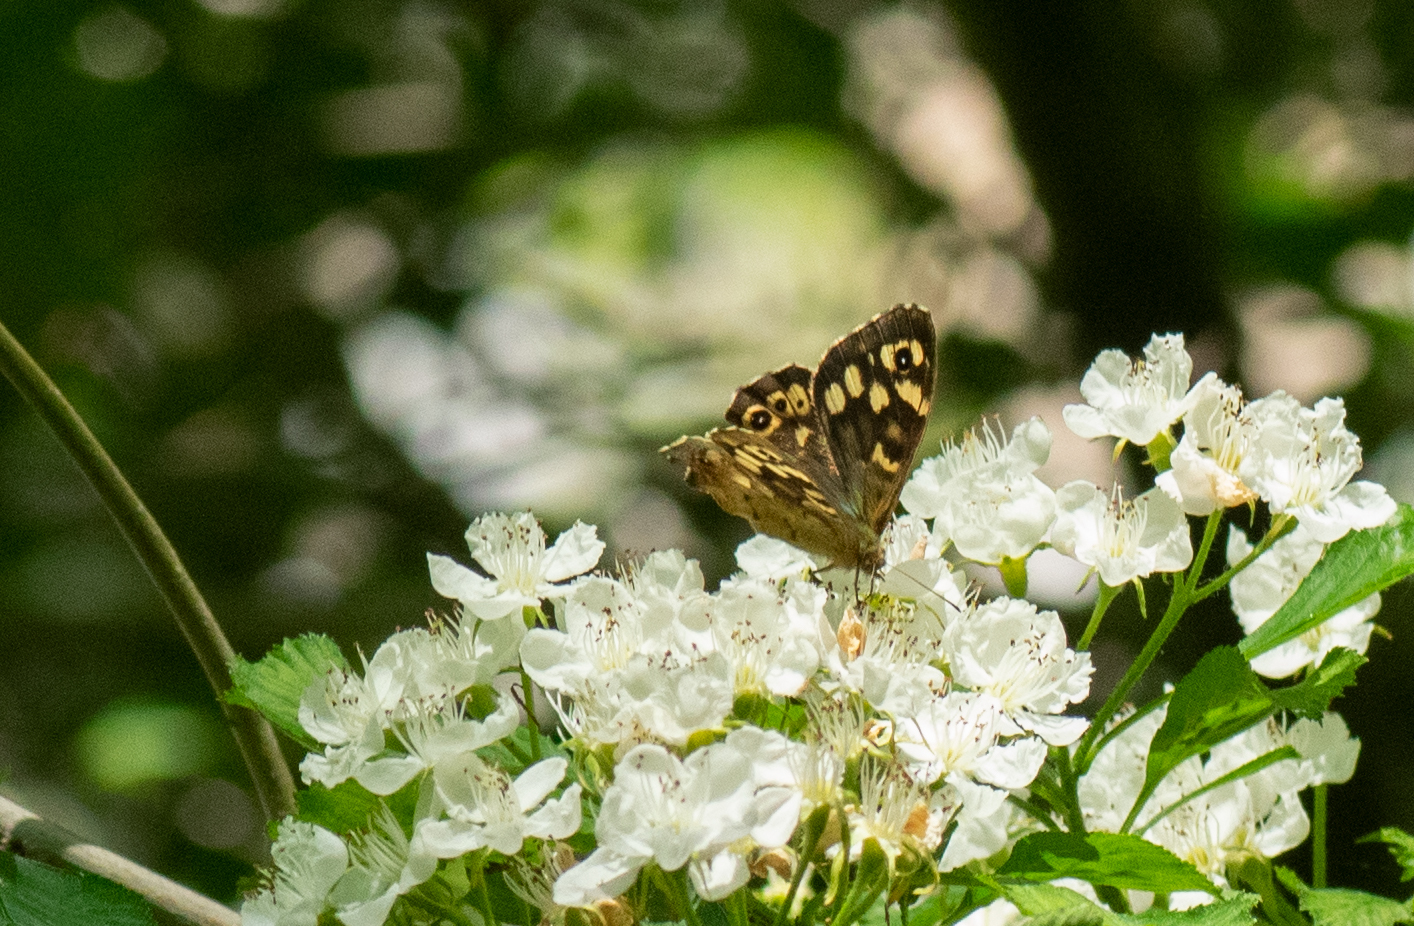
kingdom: Animalia
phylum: Arthropoda
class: Insecta
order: Lepidoptera
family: Nymphalidae
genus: Pararge
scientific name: Pararge aegeria
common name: Speckled wood
